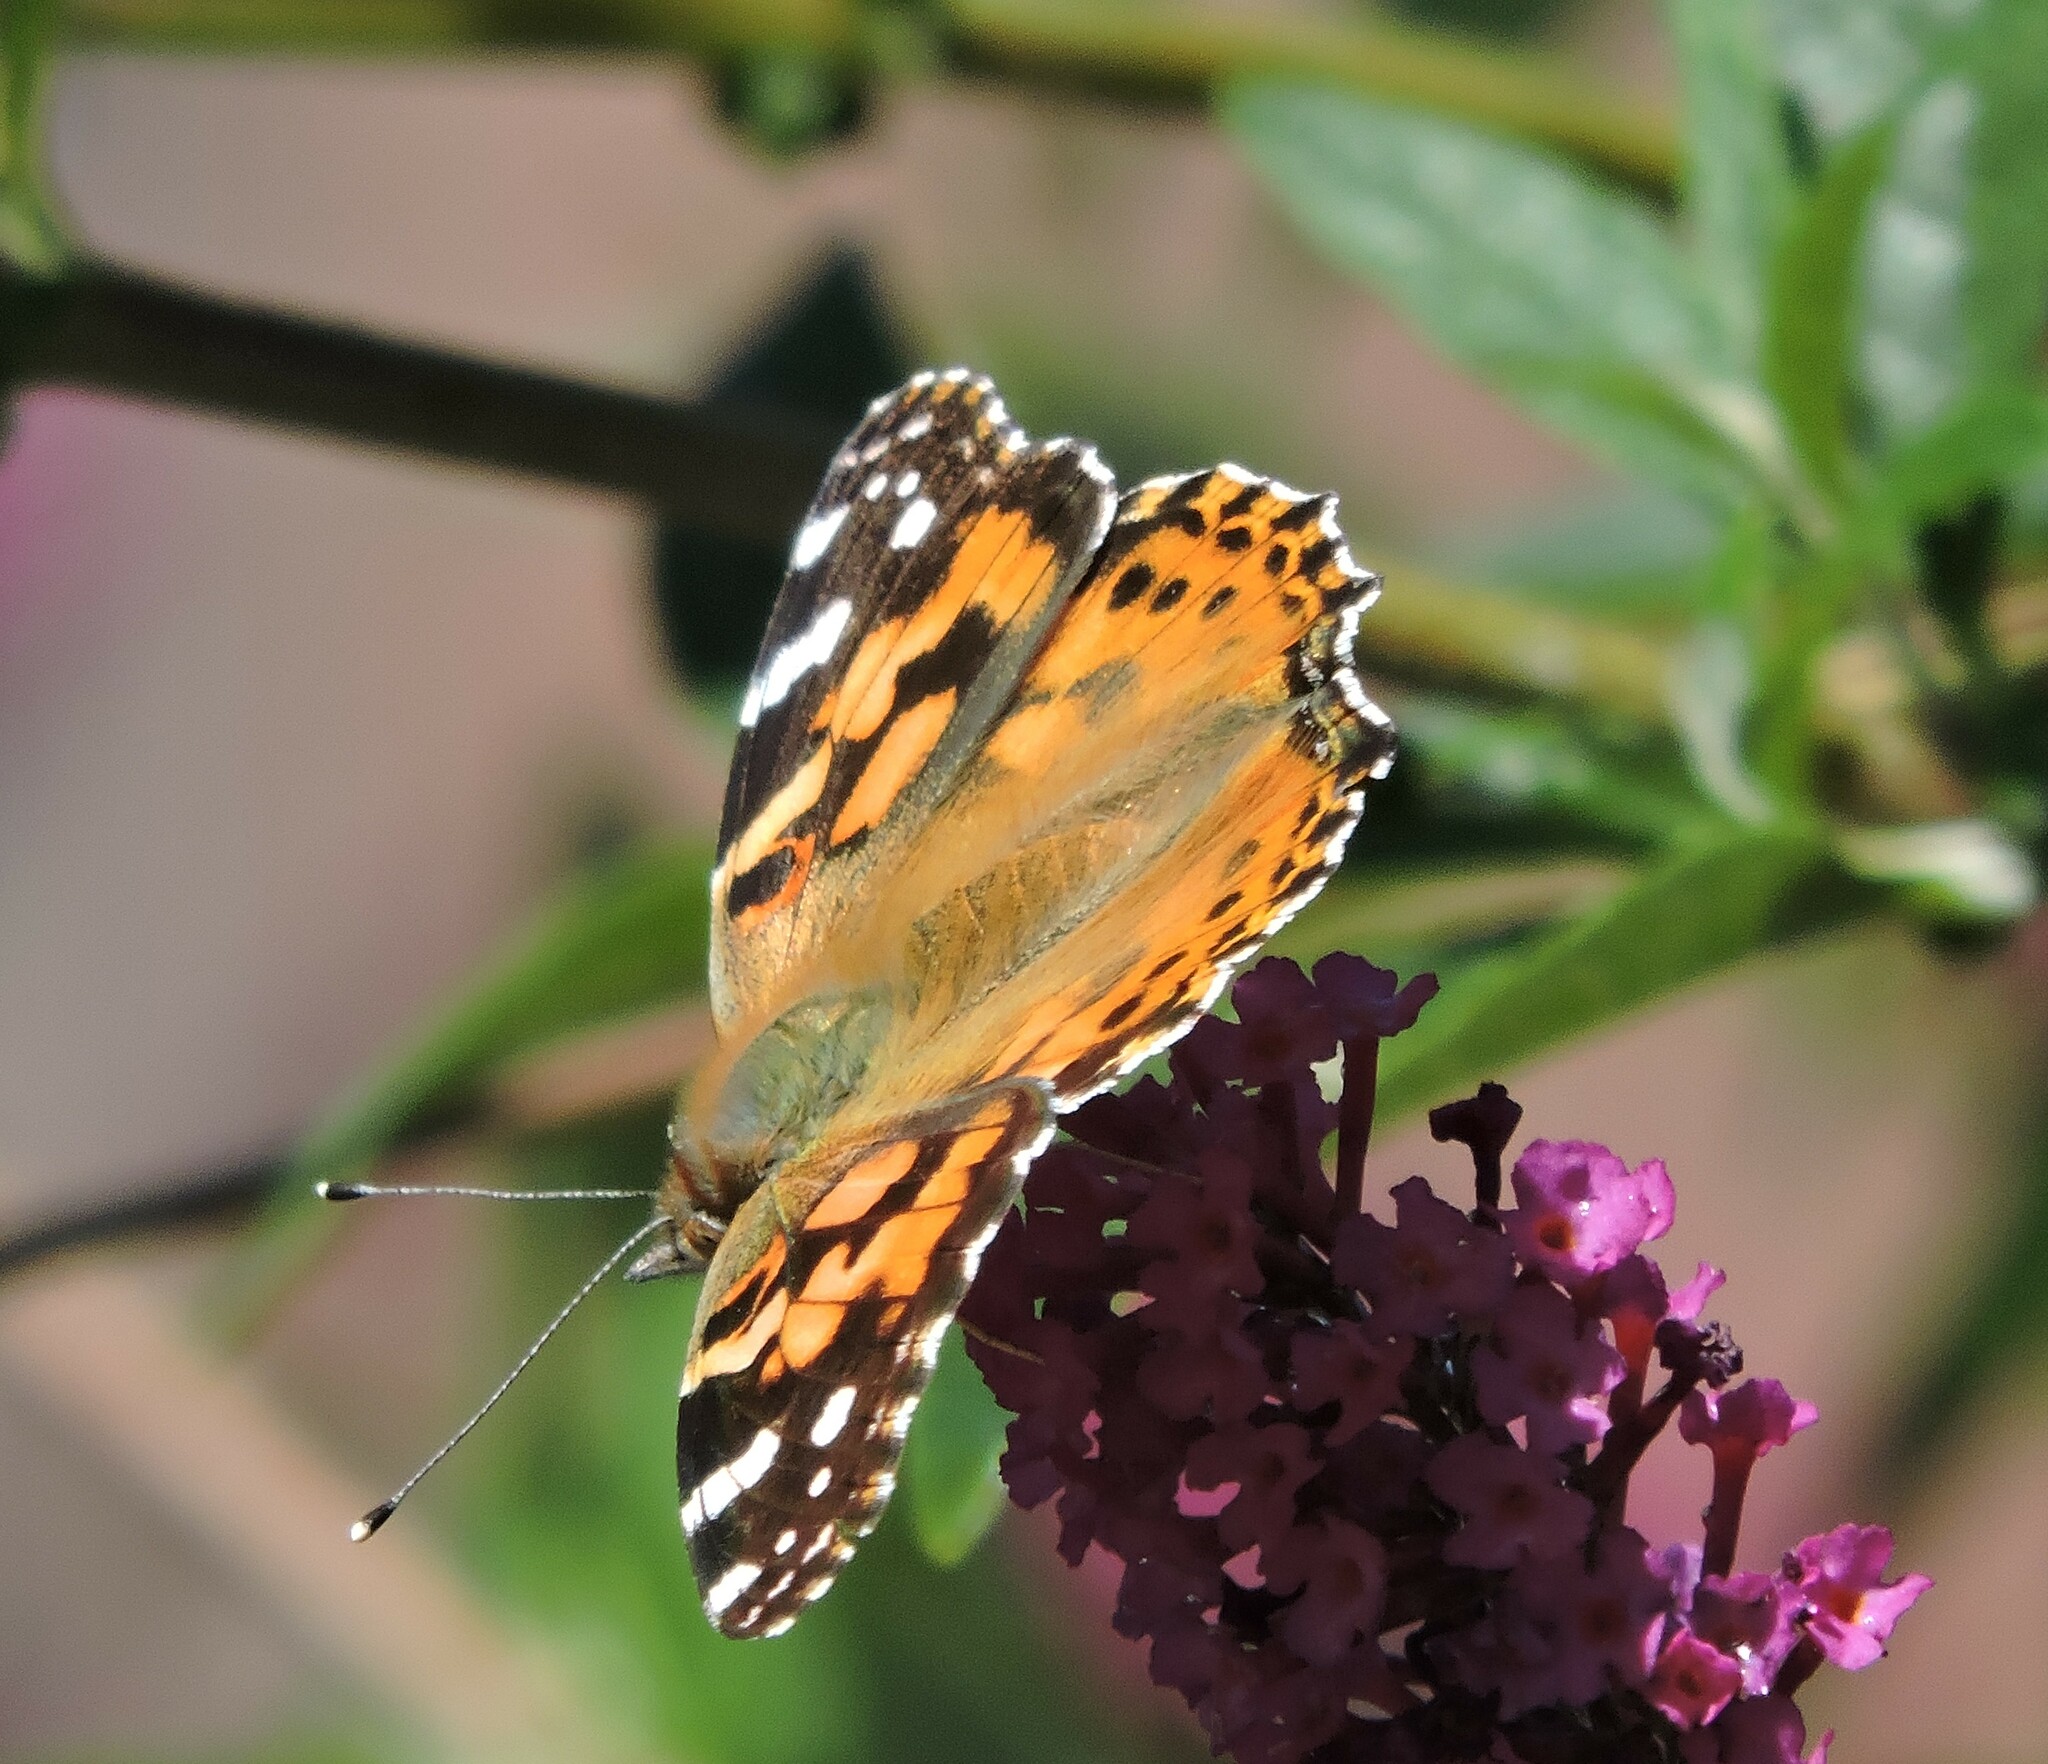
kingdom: Animalia
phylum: Arthropoda
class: Insecta
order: Lepidoptera
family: Nymphalidae
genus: Vanessa
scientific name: Vanessa cardui
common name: Painted lady
